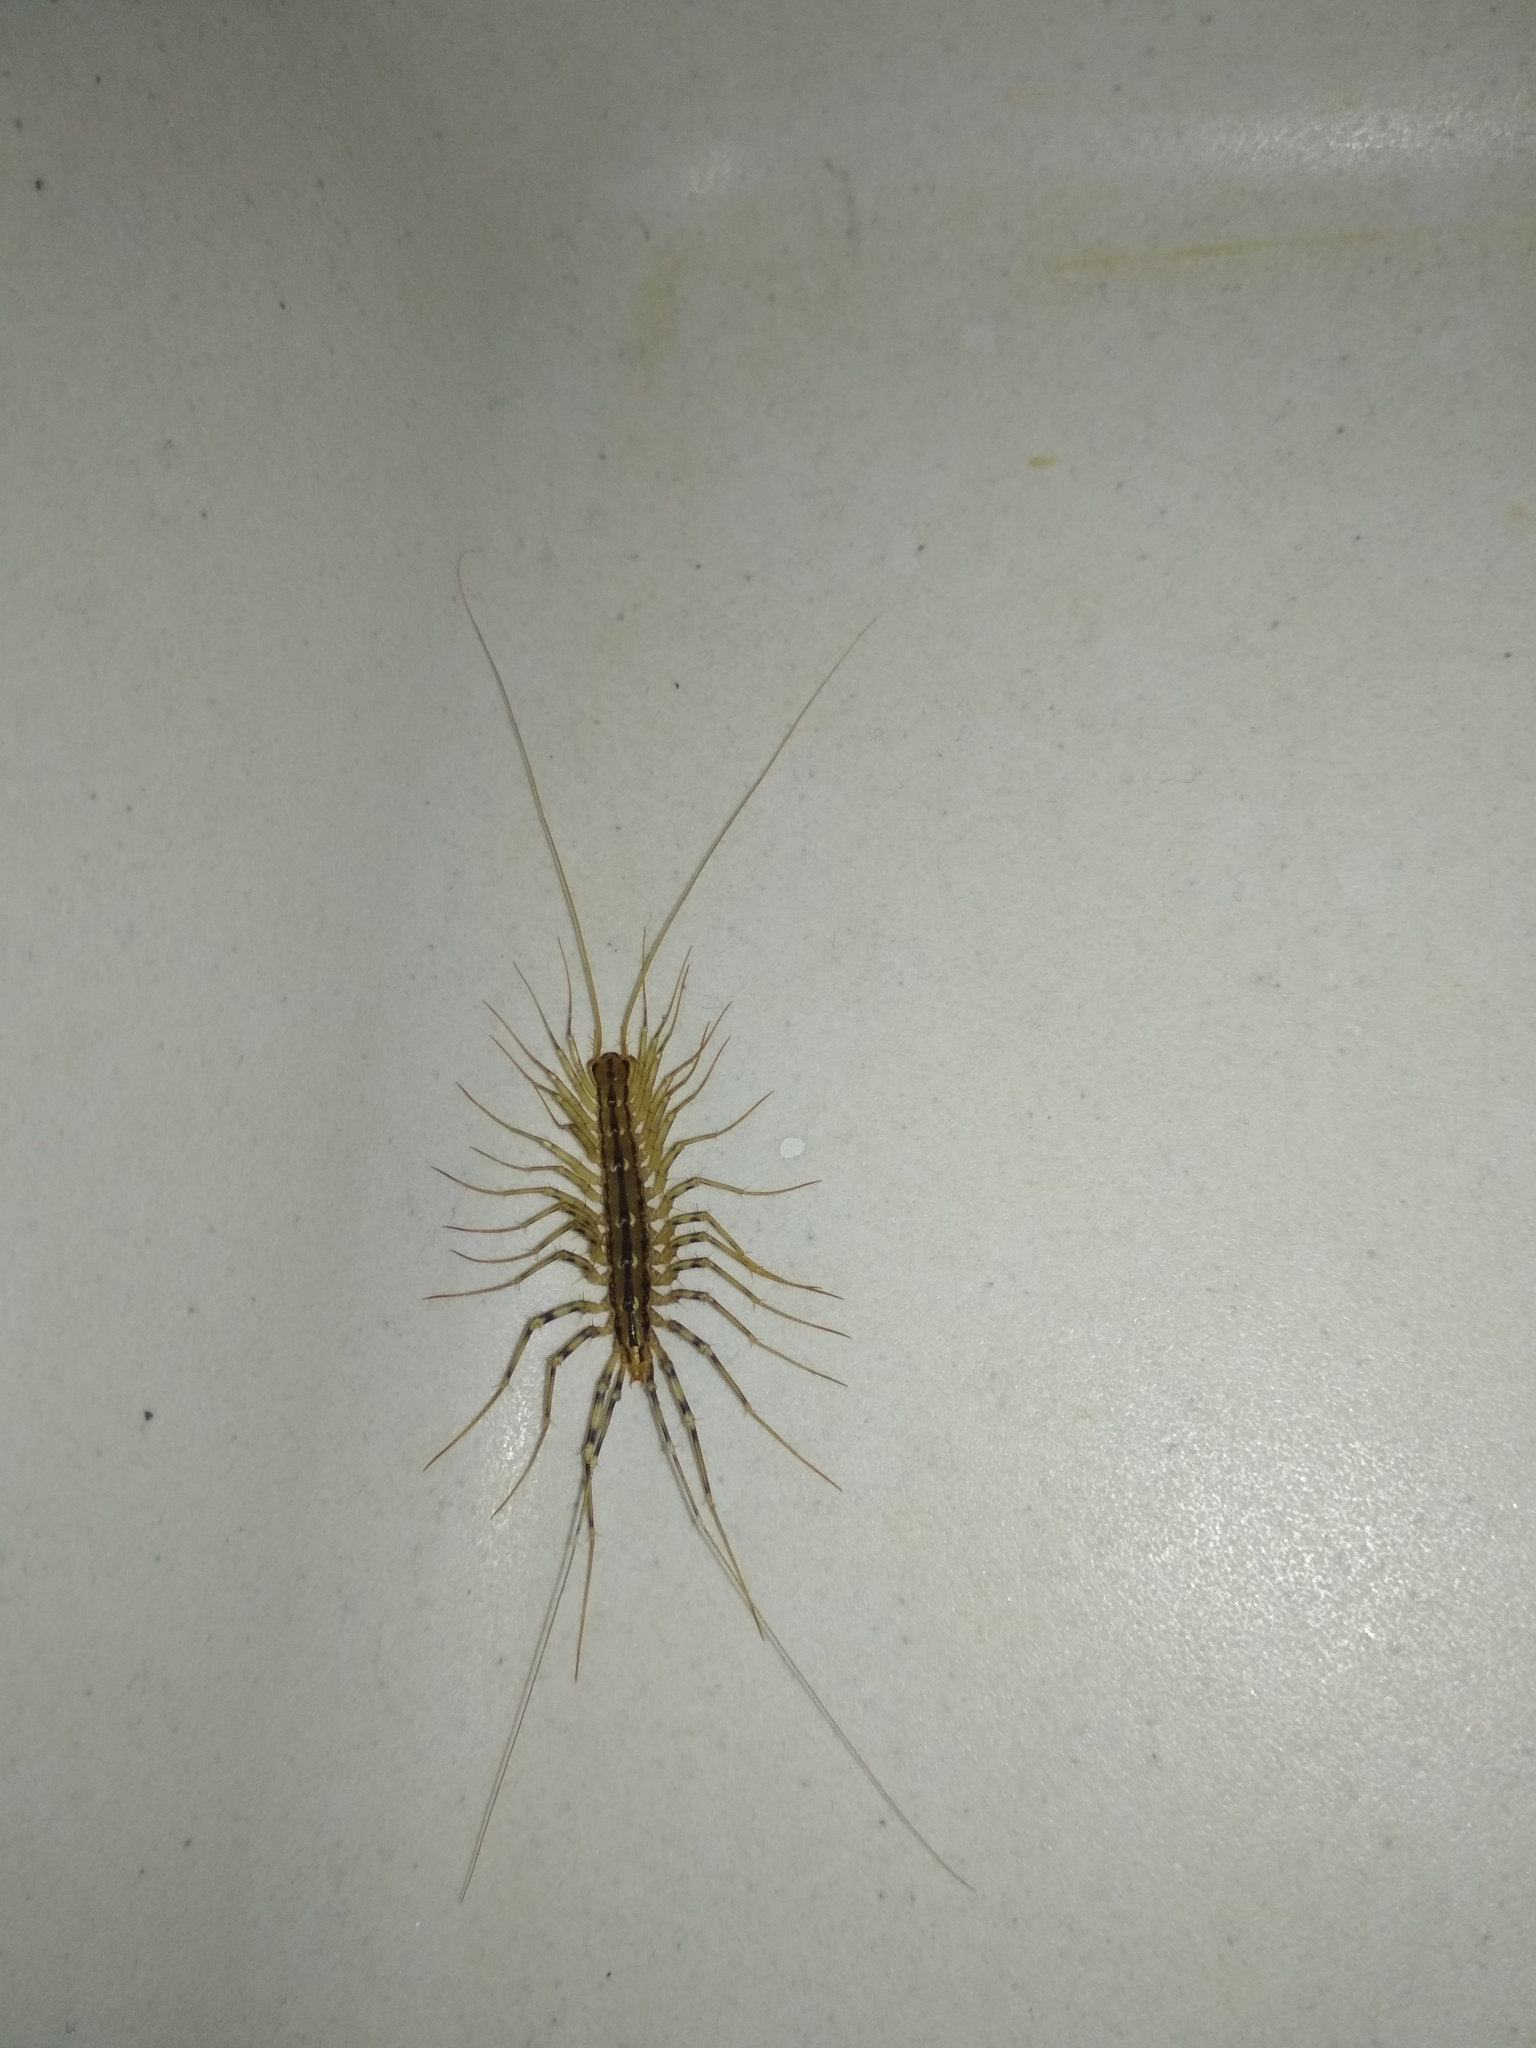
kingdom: Animalia
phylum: Arthropoda
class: Chilopoda
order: Scutigeromorpha
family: Scutigeridae
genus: Scutigera
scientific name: Scutigera coleoptrata
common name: House centipede
